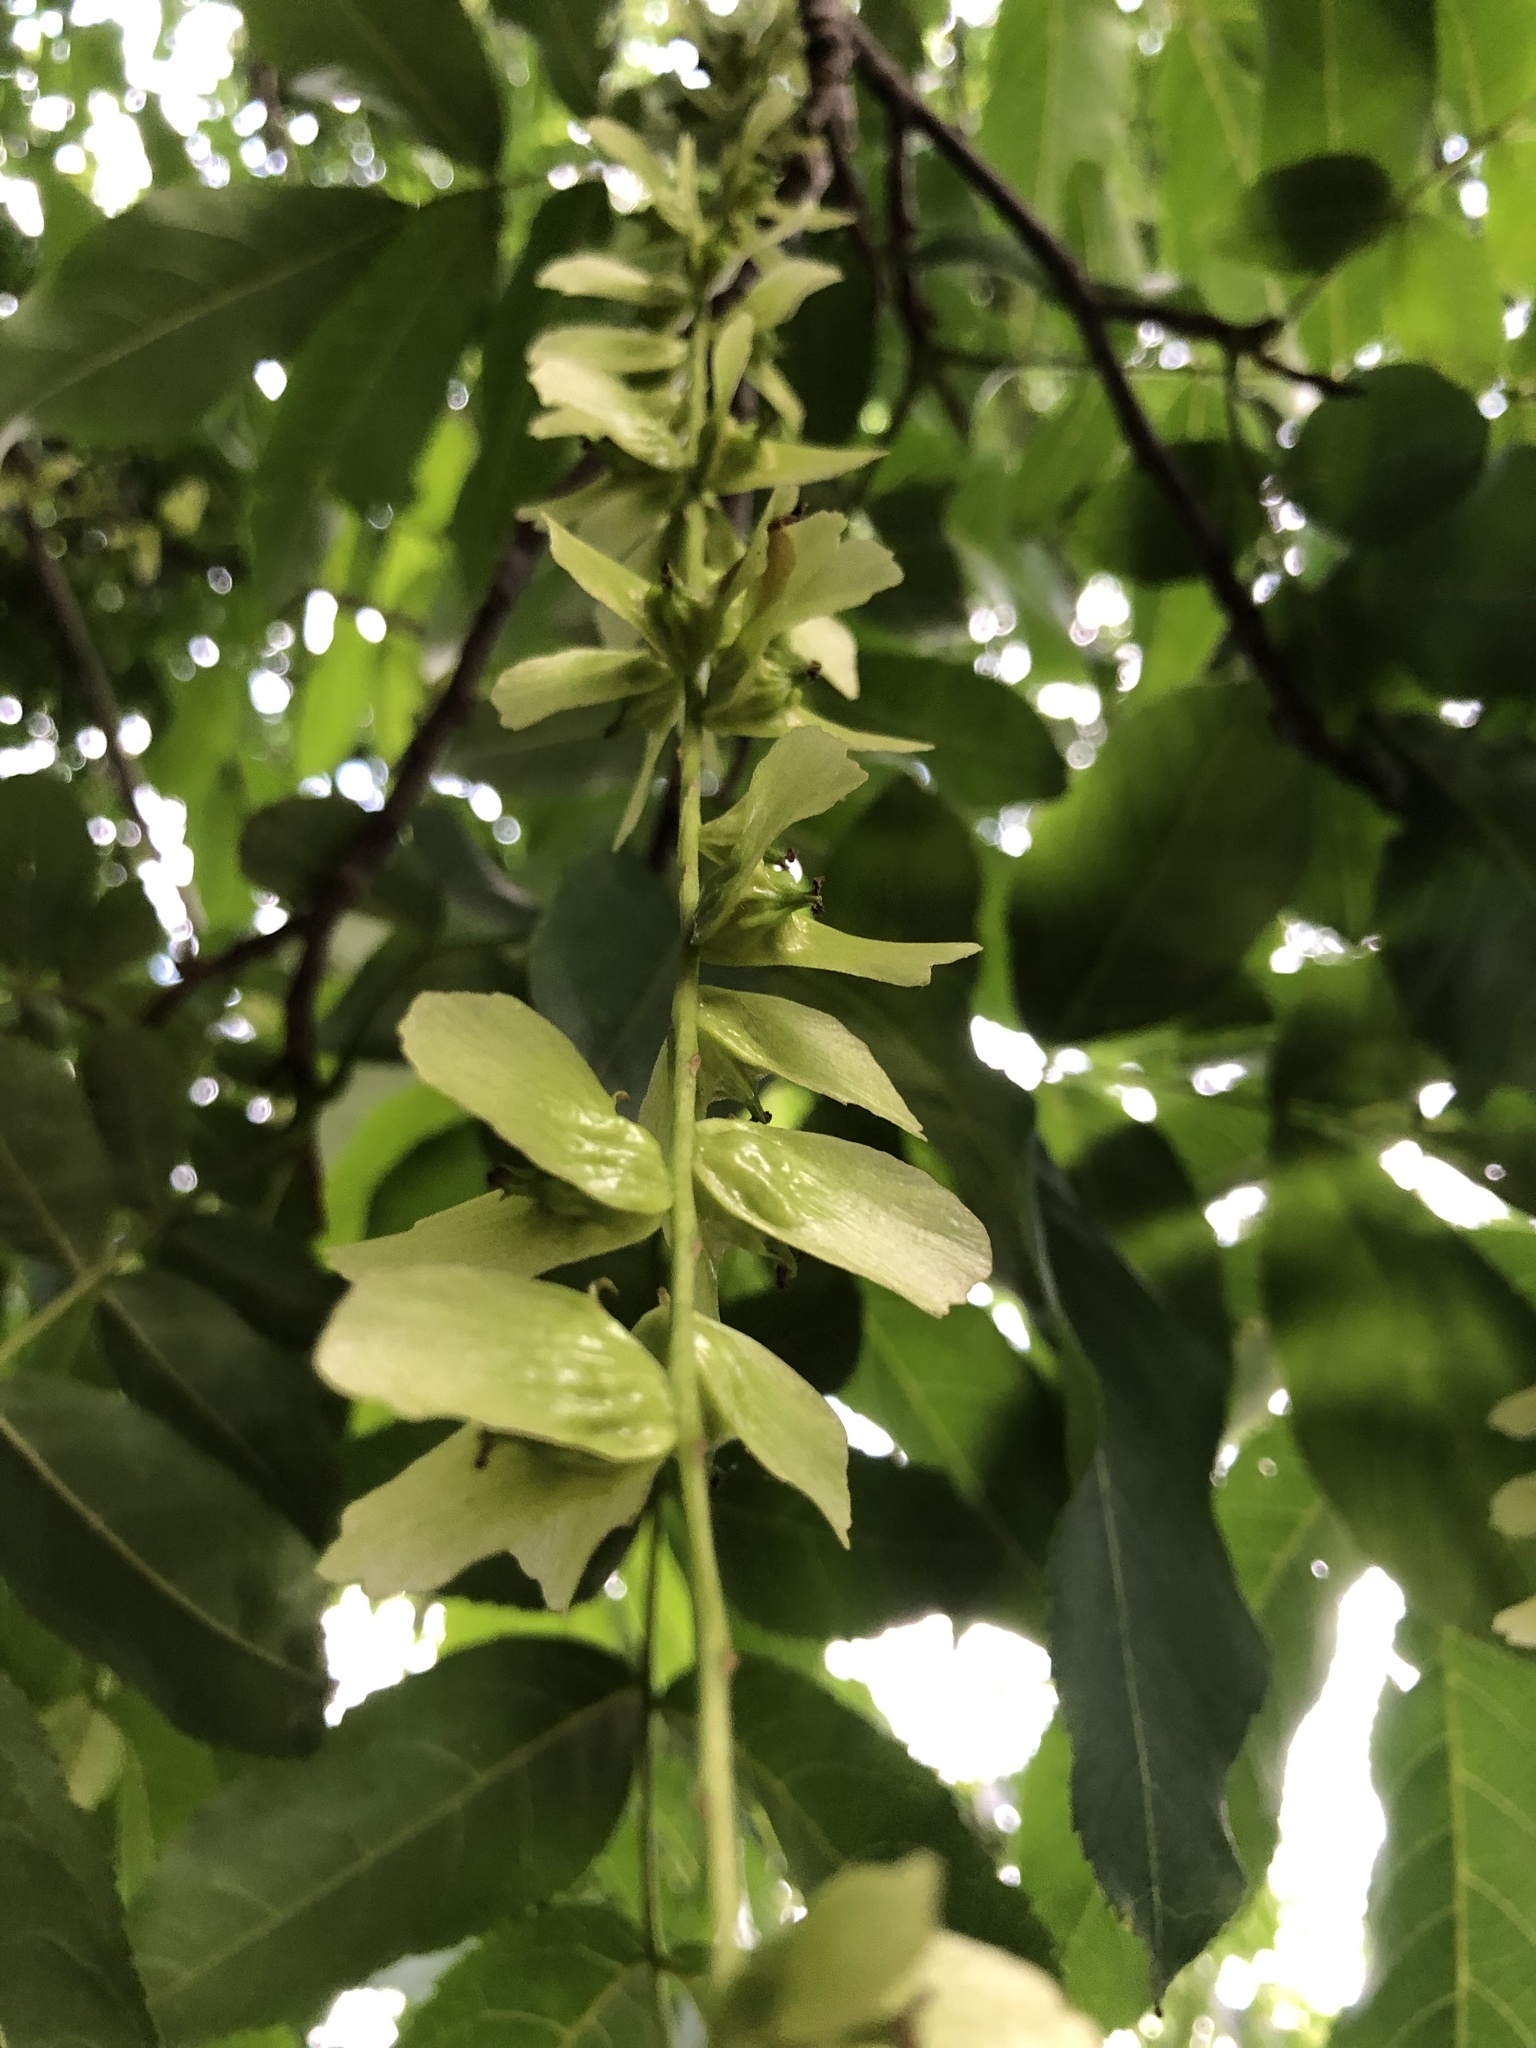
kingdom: Plantae
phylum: Tracheophyta
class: Magnoliopsida
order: Fagales
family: Juglandaceae
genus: Pterocarya
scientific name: Pterocarya stenoptera
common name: Chinese wingnut
